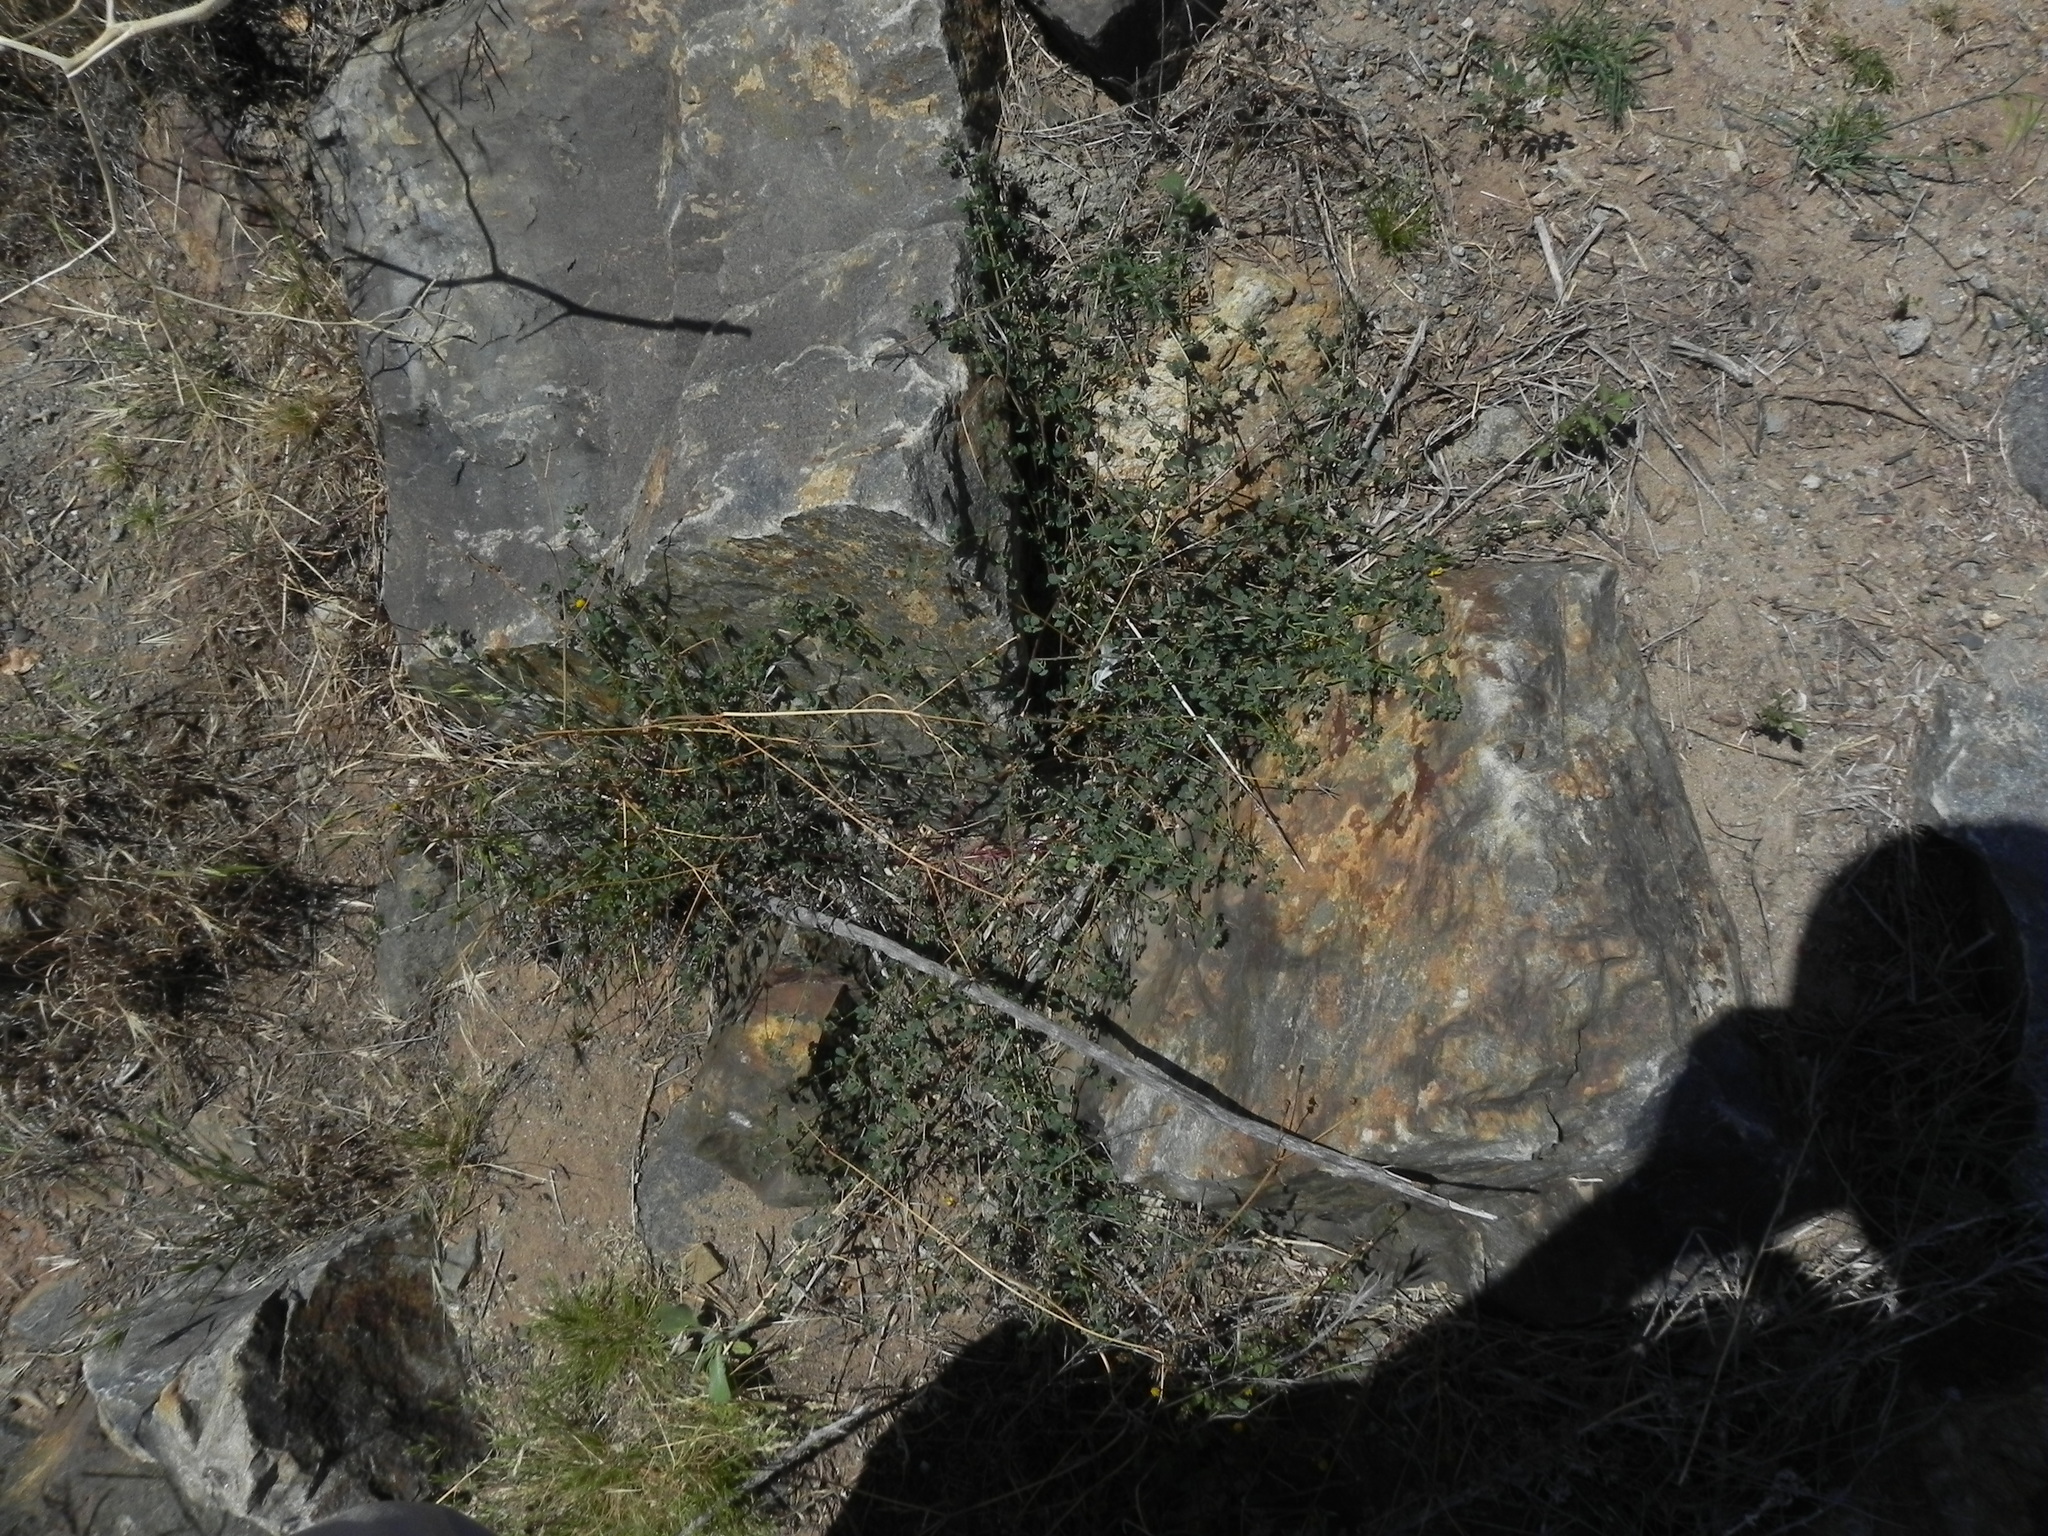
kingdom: Plantae
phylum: Tracheophyta
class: Magnoliopsida
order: Fabales
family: Fabaceae
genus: Acmispon
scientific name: Acmispon prostratus
